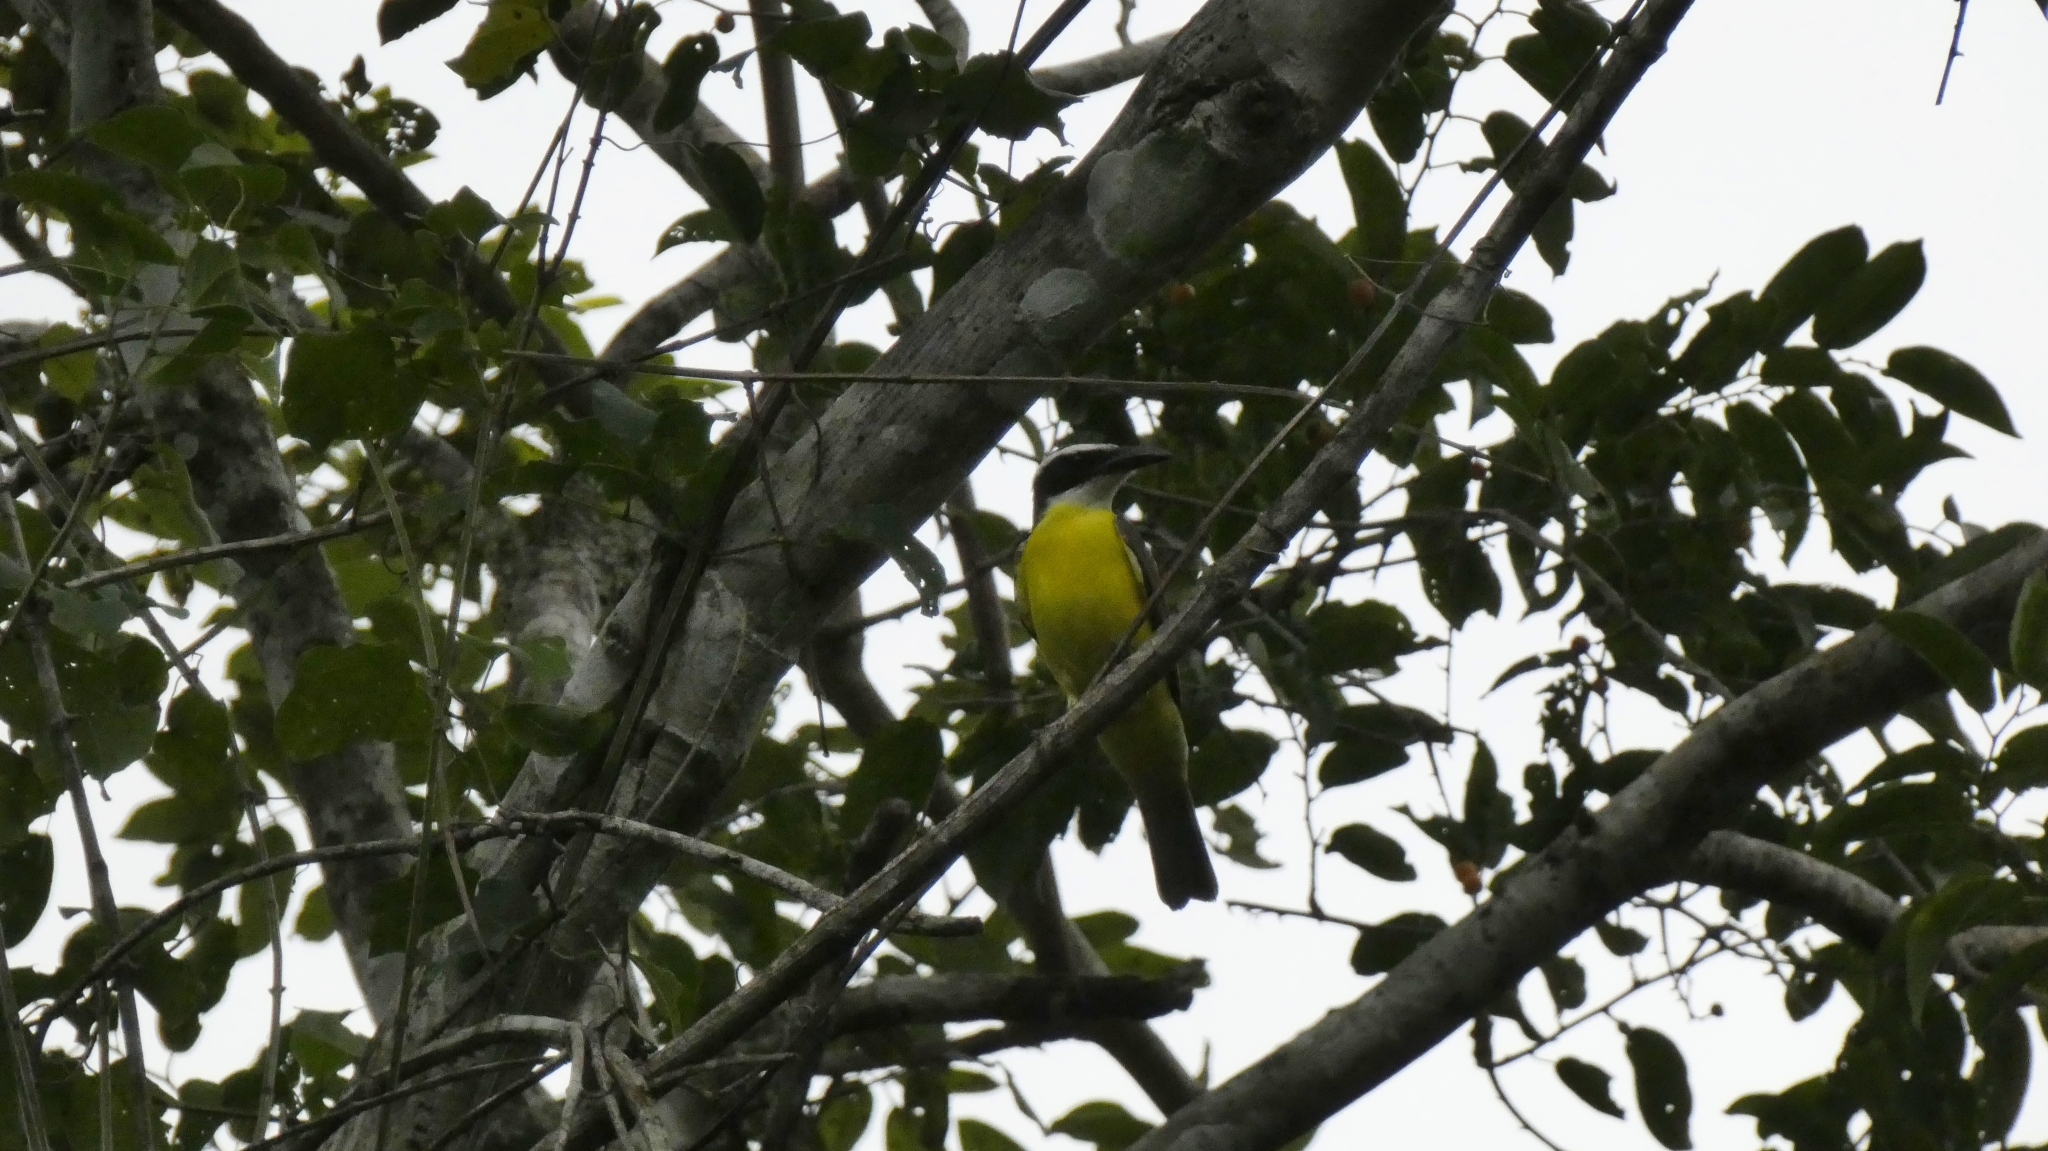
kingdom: Animalia
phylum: Chordata
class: Aves
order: Passeriformes
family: Tyrannidae
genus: Megarynchus
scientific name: Megarynchus pitangua
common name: Boat-billed flycatcher
